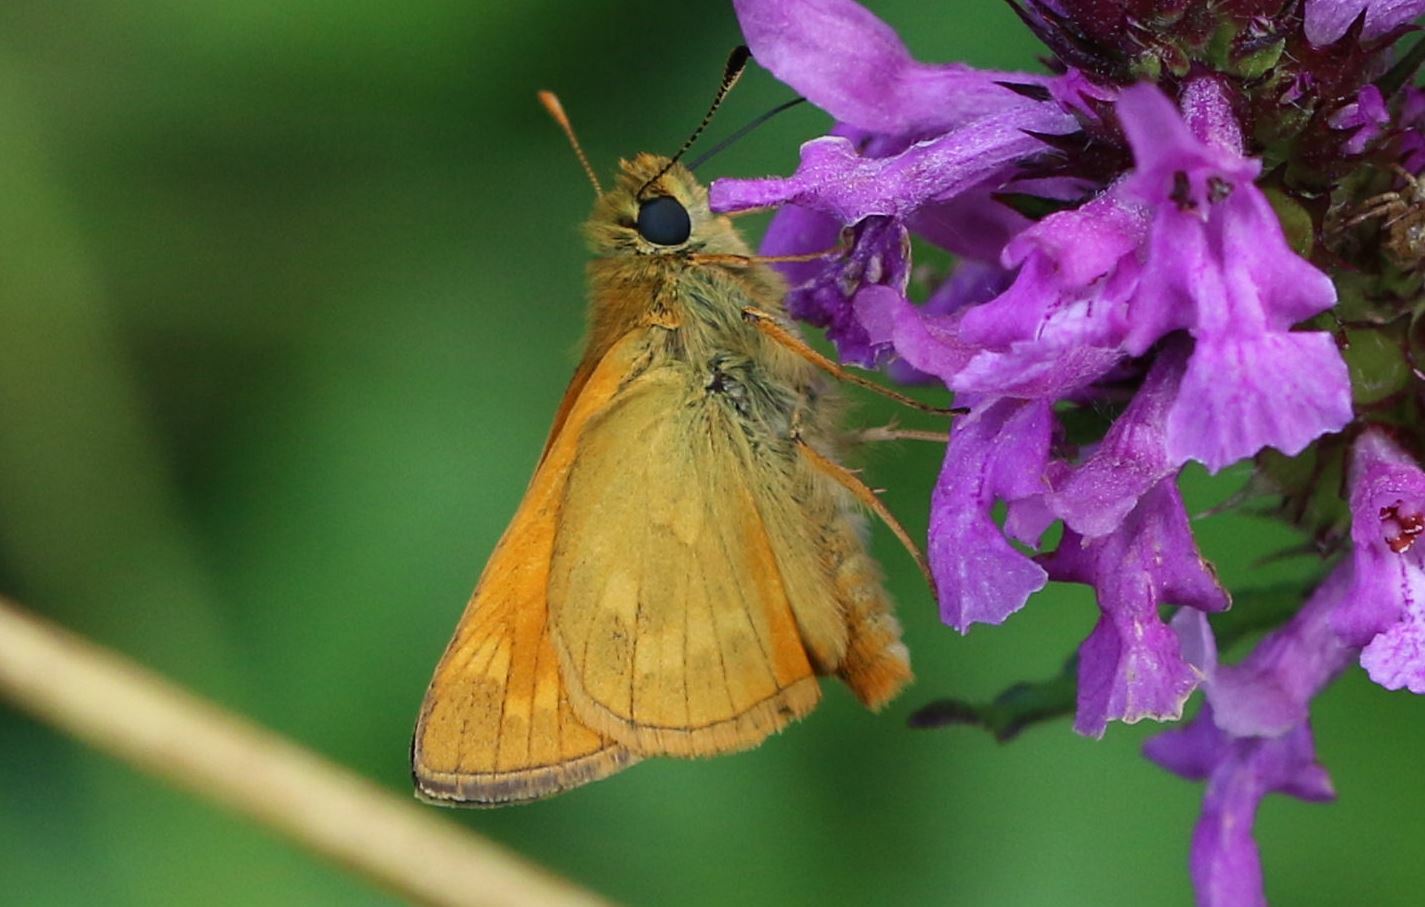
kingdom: Animalia
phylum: Arthropoda
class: Insecta
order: Lepidoptera
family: Hesperiidae
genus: Ochlodes
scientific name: Ochlodes venata
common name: Large skipper
